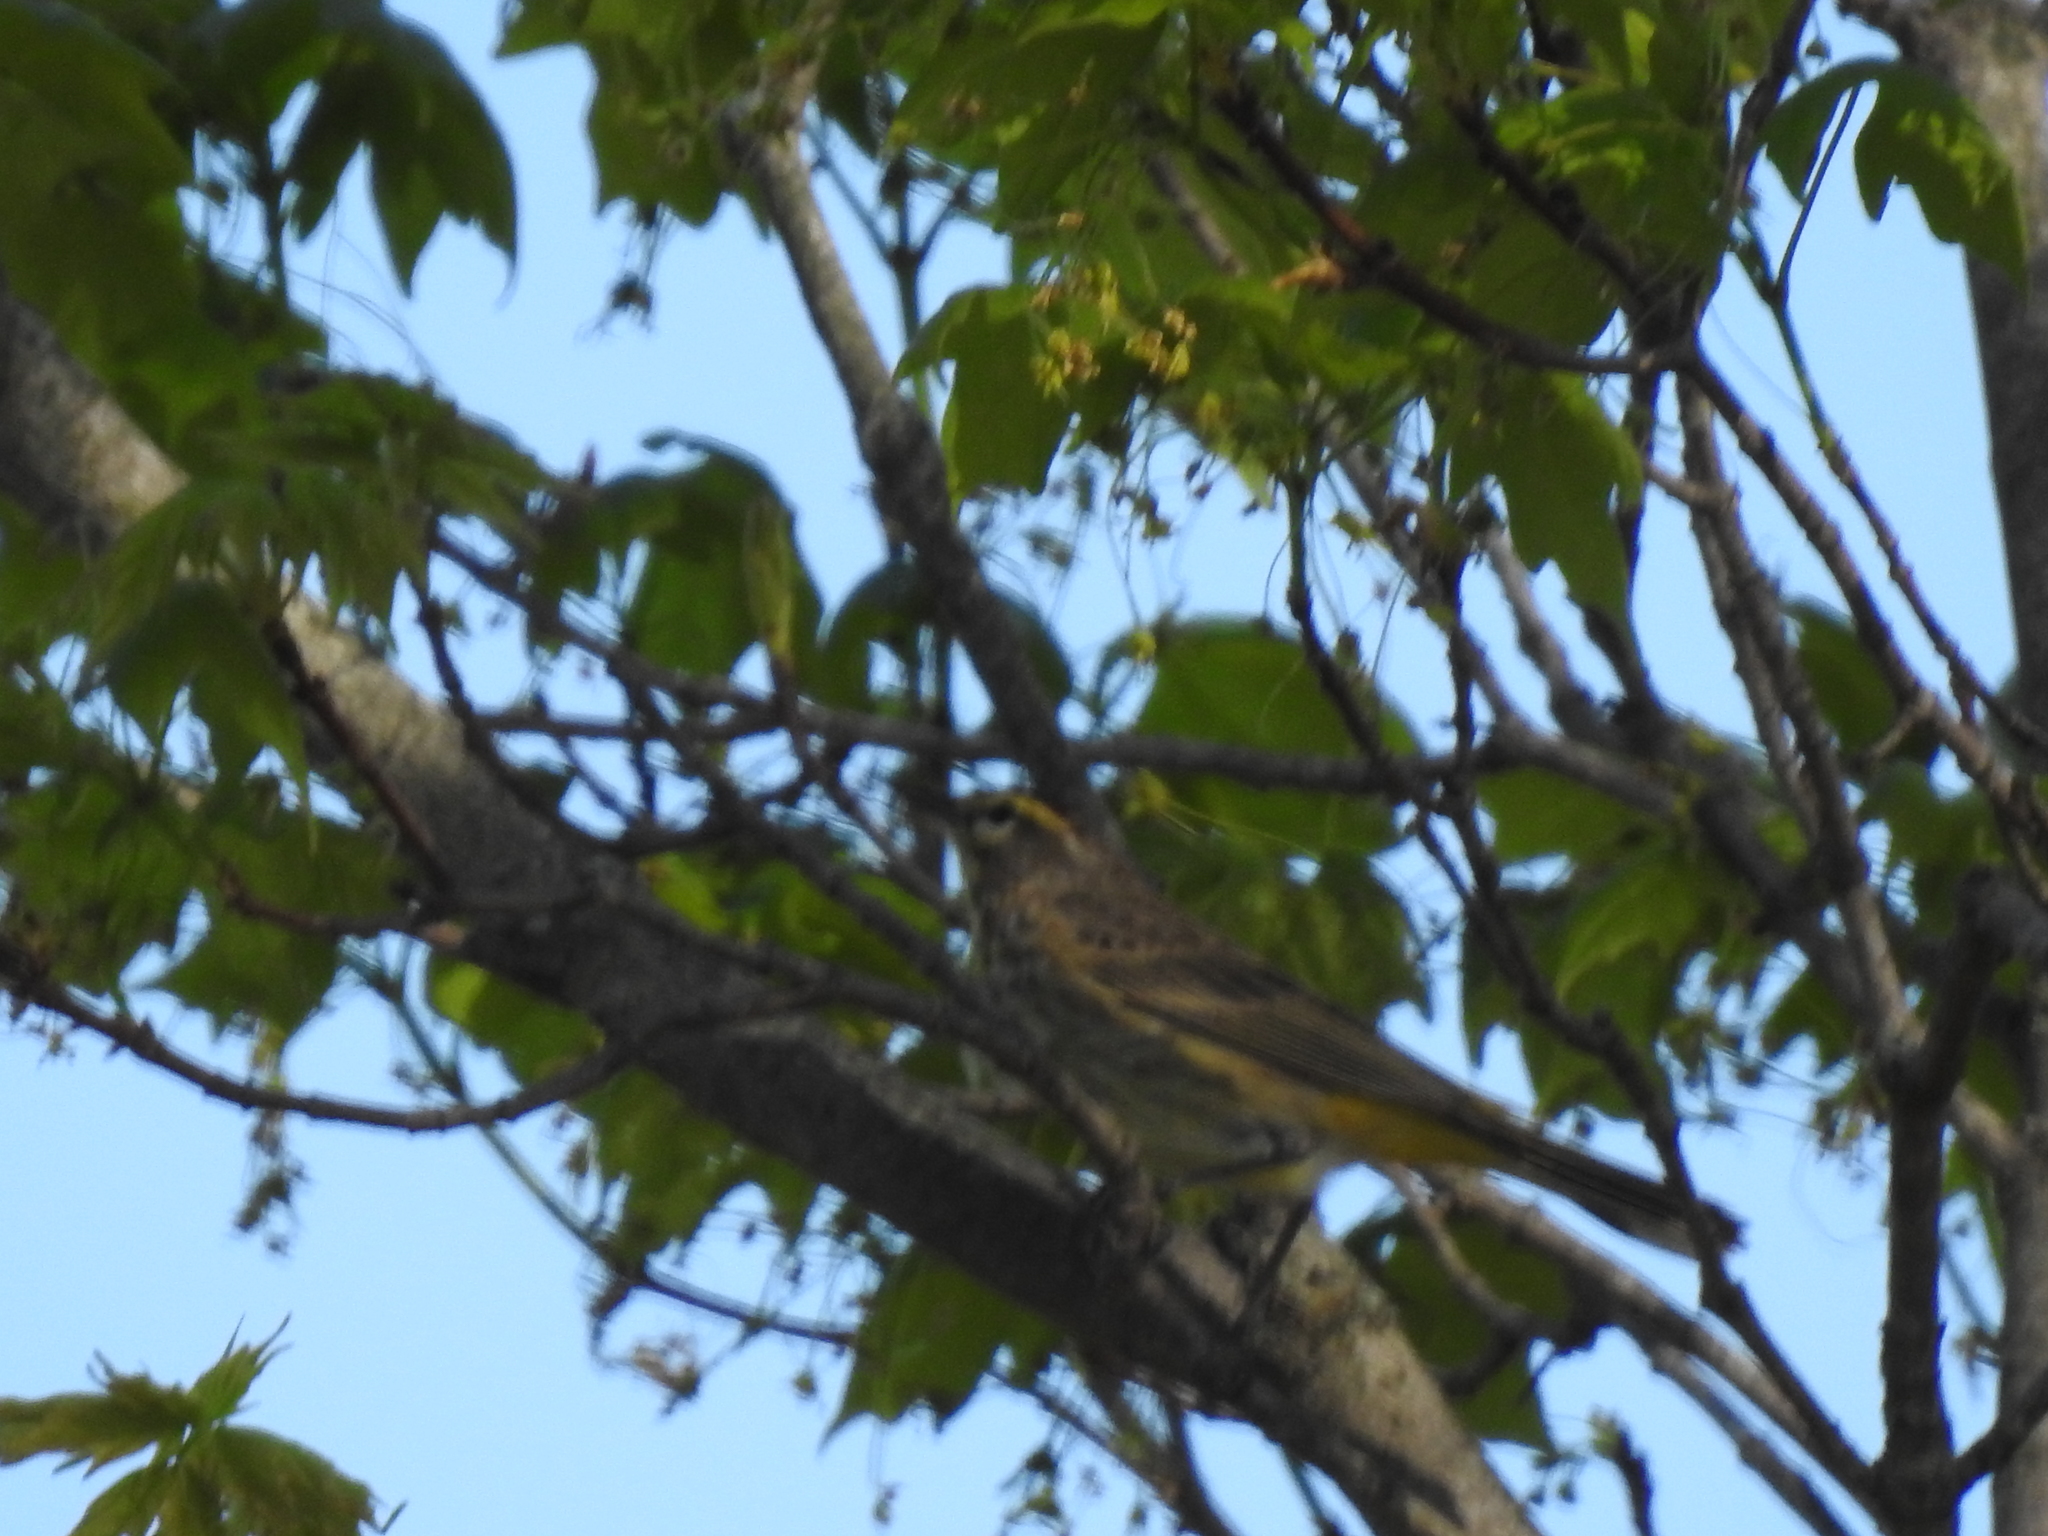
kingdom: Animalia
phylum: Chordata
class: Aves
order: Passeriformes
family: Turdidae
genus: Turdus
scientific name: Turdus migratorius
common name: American robin
